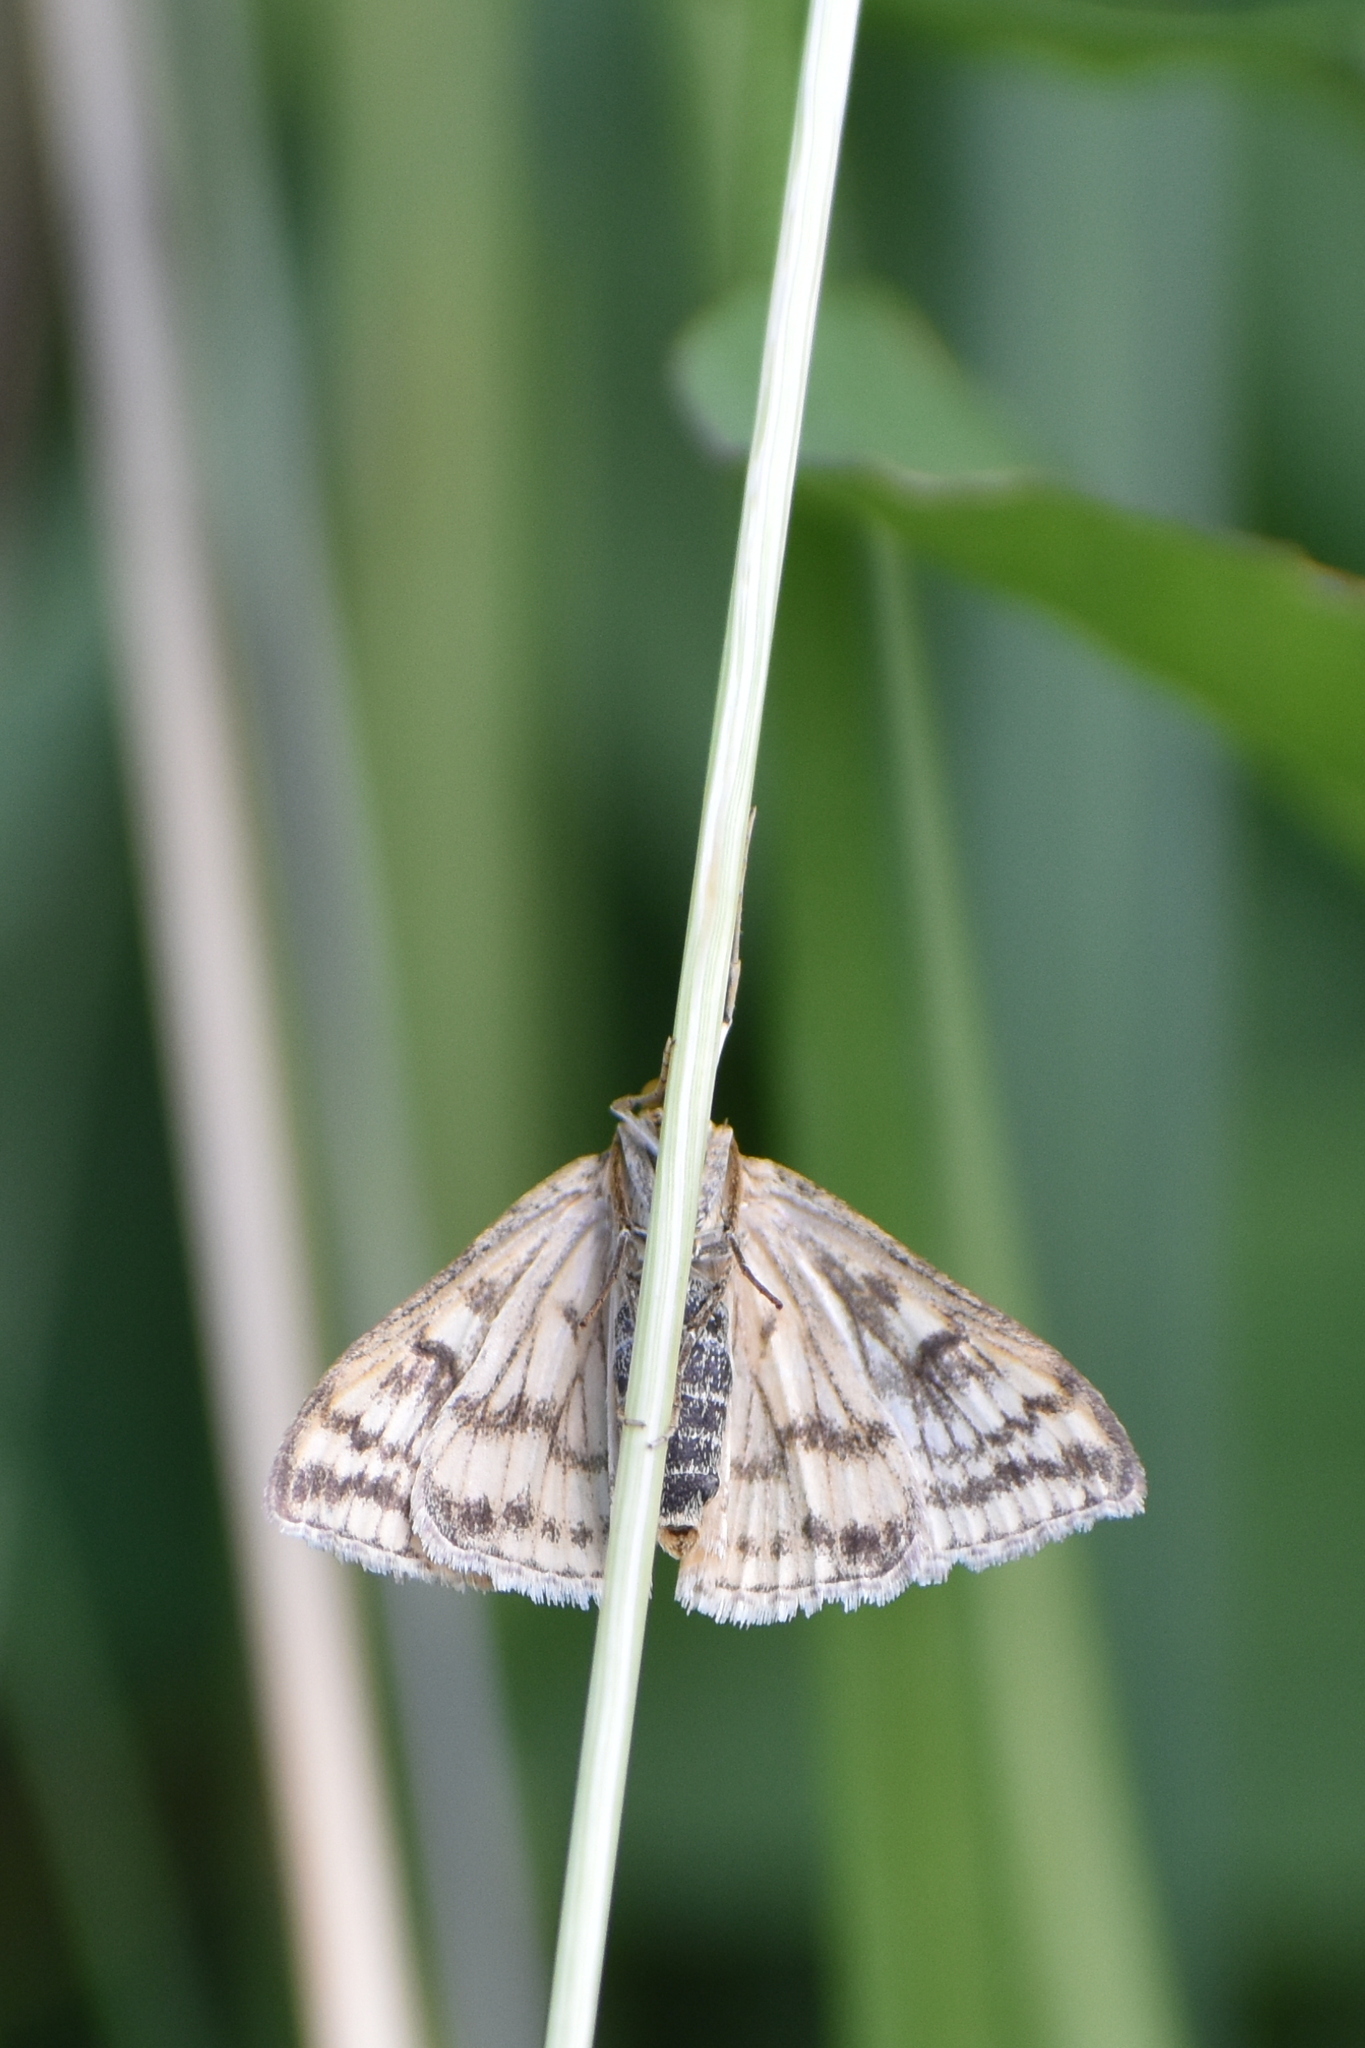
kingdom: Animalia
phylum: Arthropoda
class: Insecta
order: Lepidoptera
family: Crambidae
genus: Sitochroa
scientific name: Sitochroa verticalis
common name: Lesser pearl
